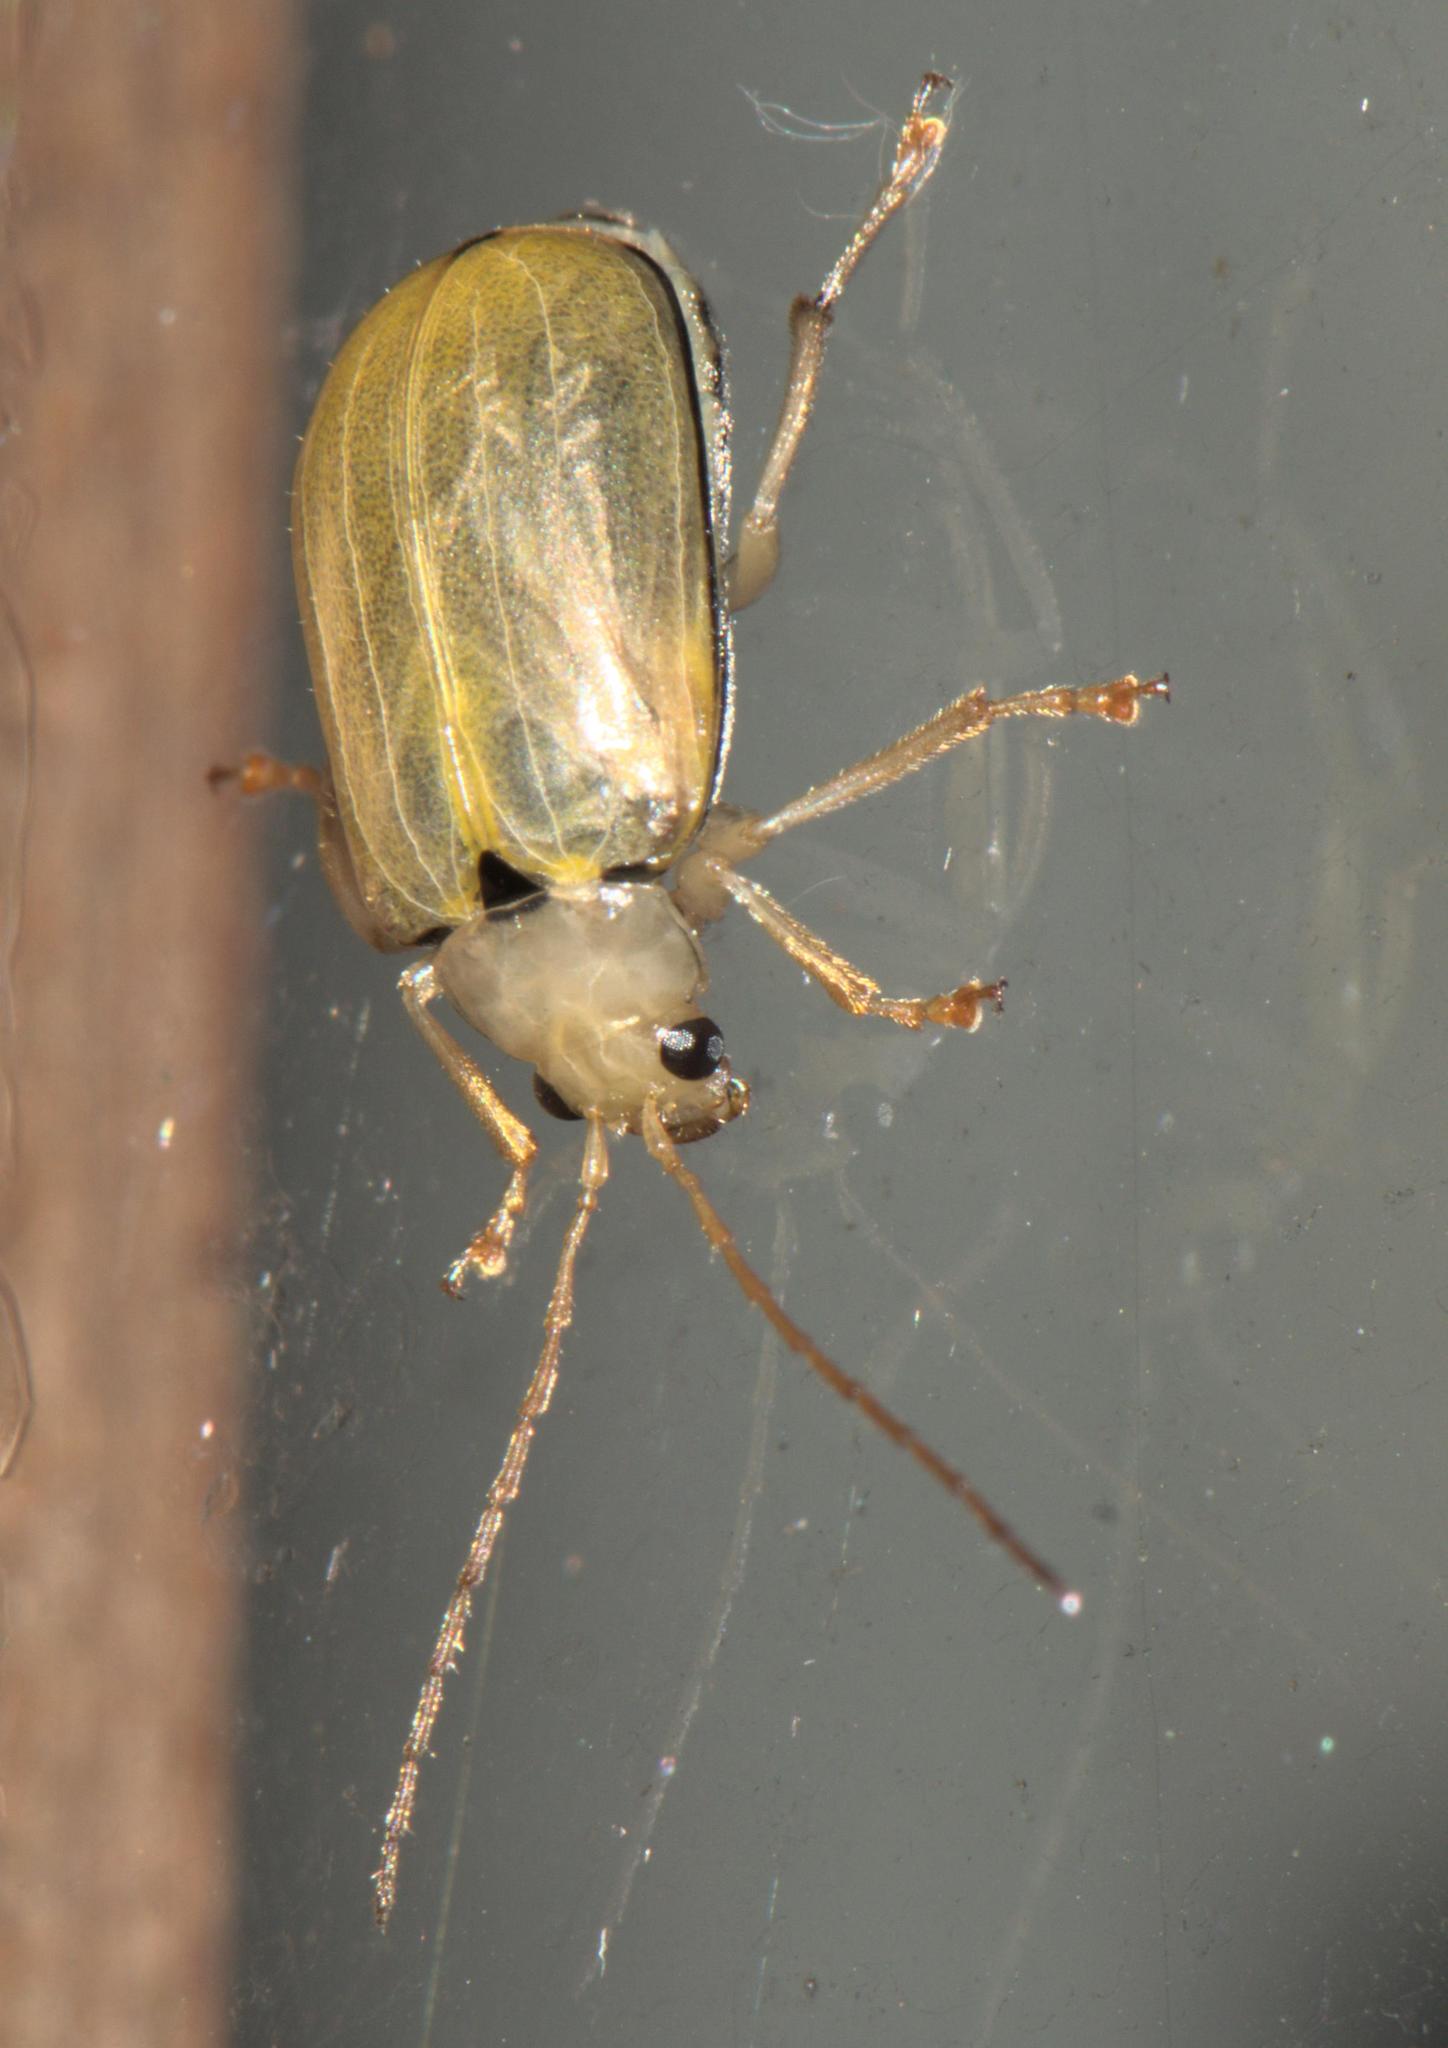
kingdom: Animalia
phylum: Arthropoda
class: Insecta
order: Coleoptera
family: Chrysomelidae
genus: Macrima
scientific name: Macrima
